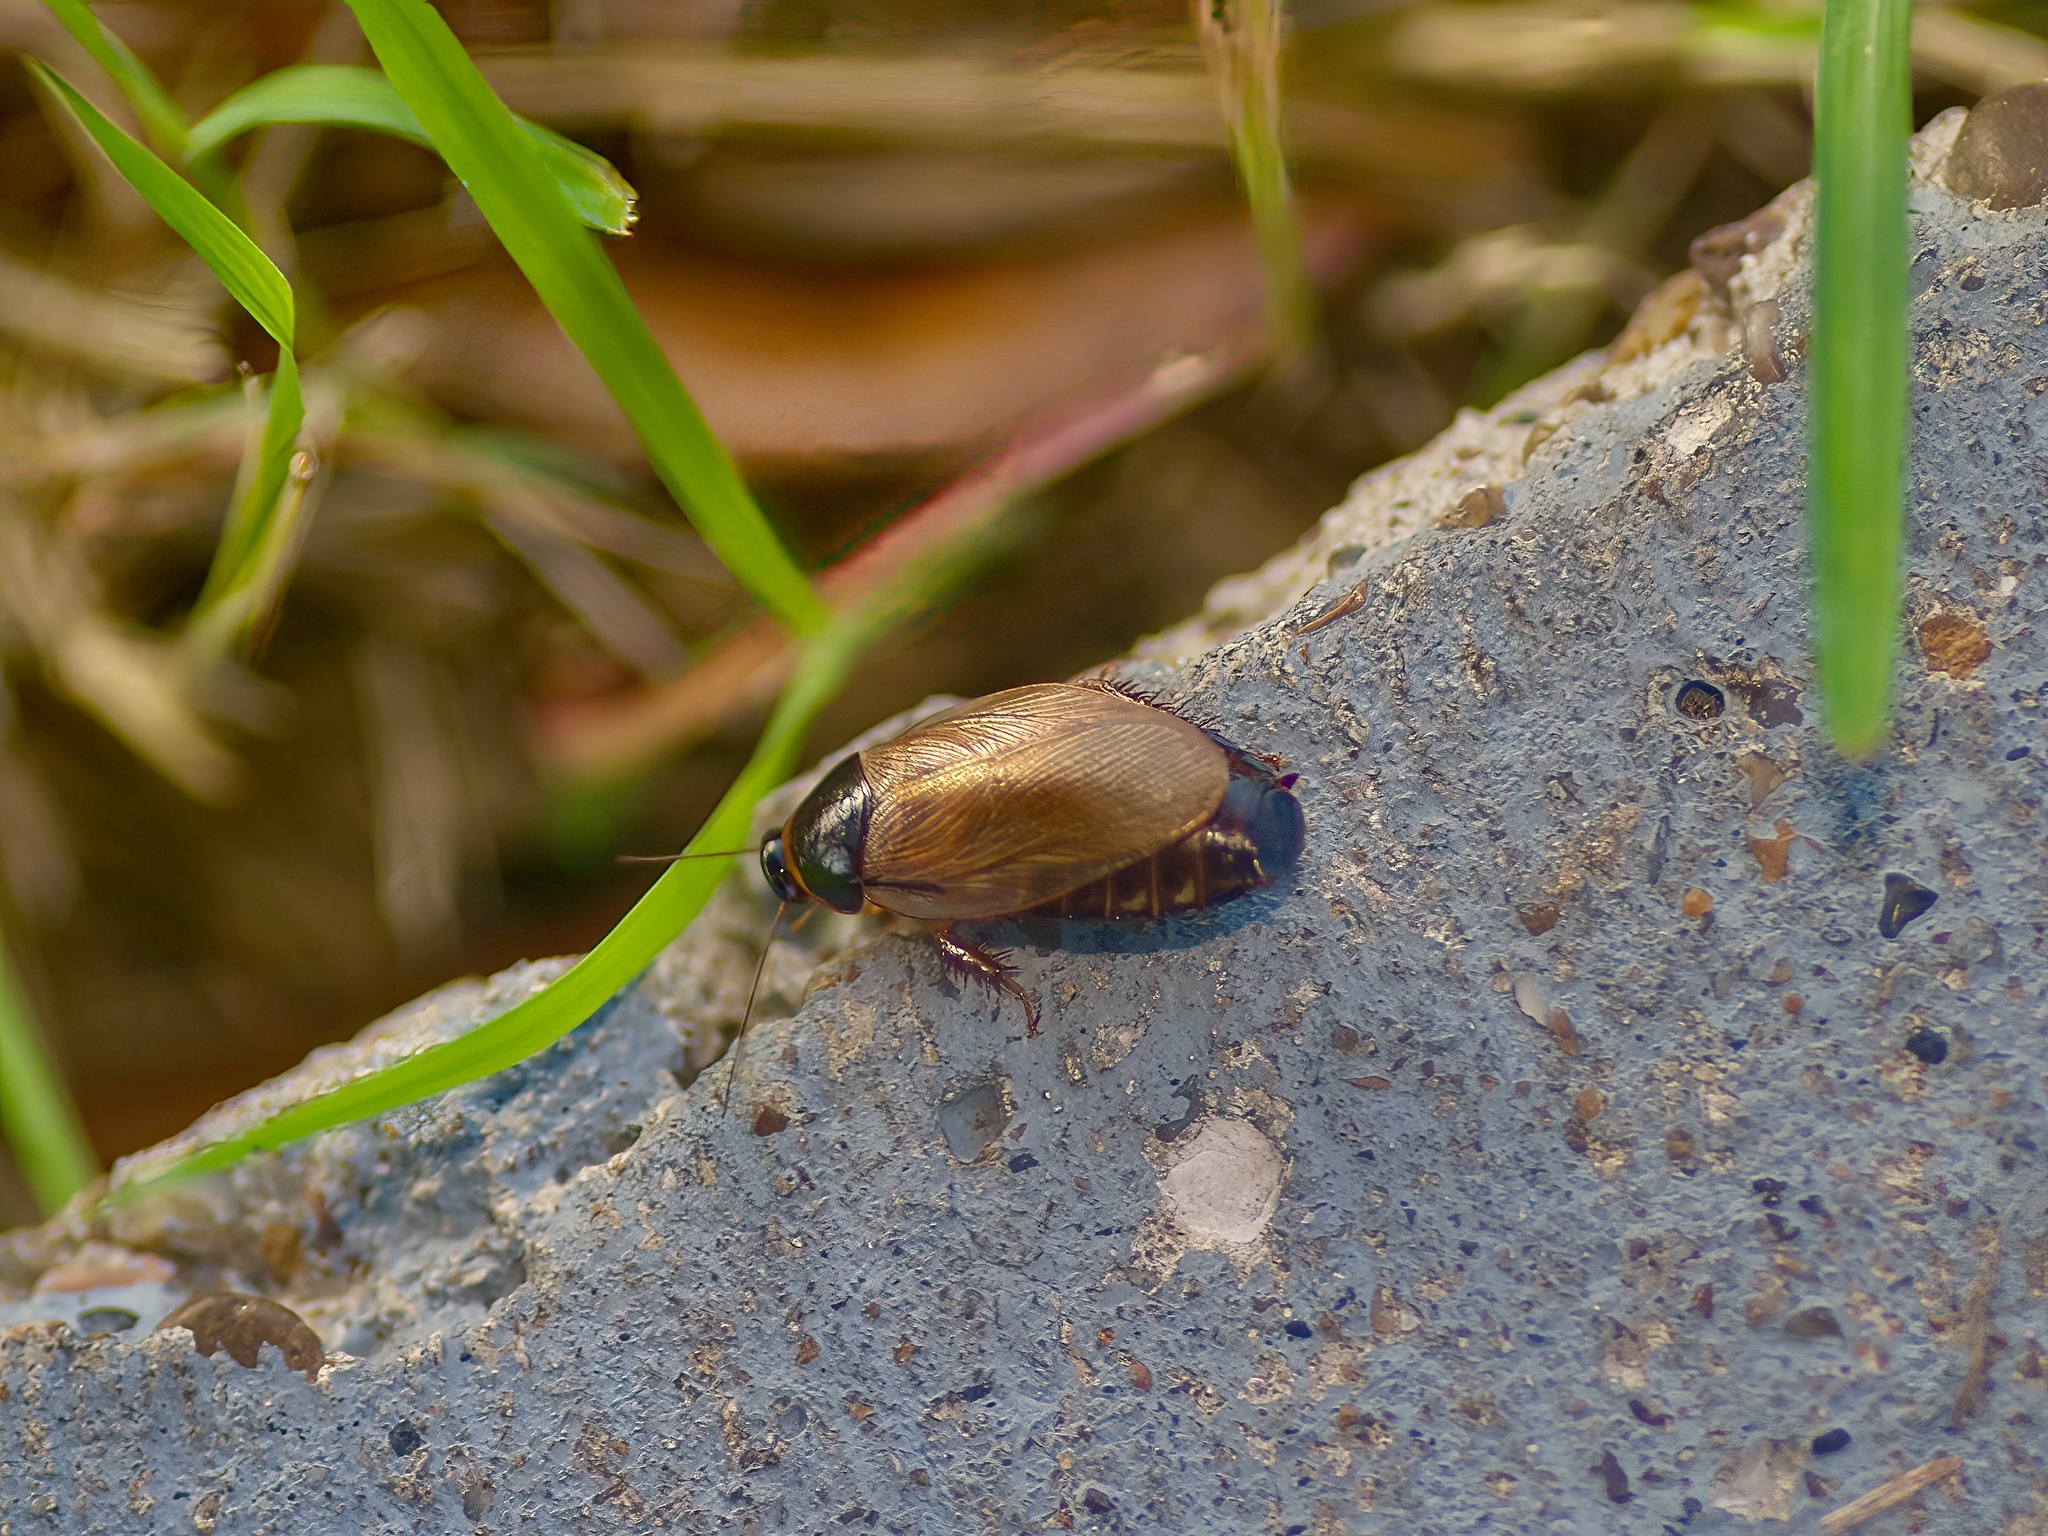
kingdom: Animalia
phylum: Arthropoda
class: Insecta
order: Blattodea
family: Blaberidae
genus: Pycnoscelus
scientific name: Pycnoscelus surinamensis
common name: Surinam cockroach
